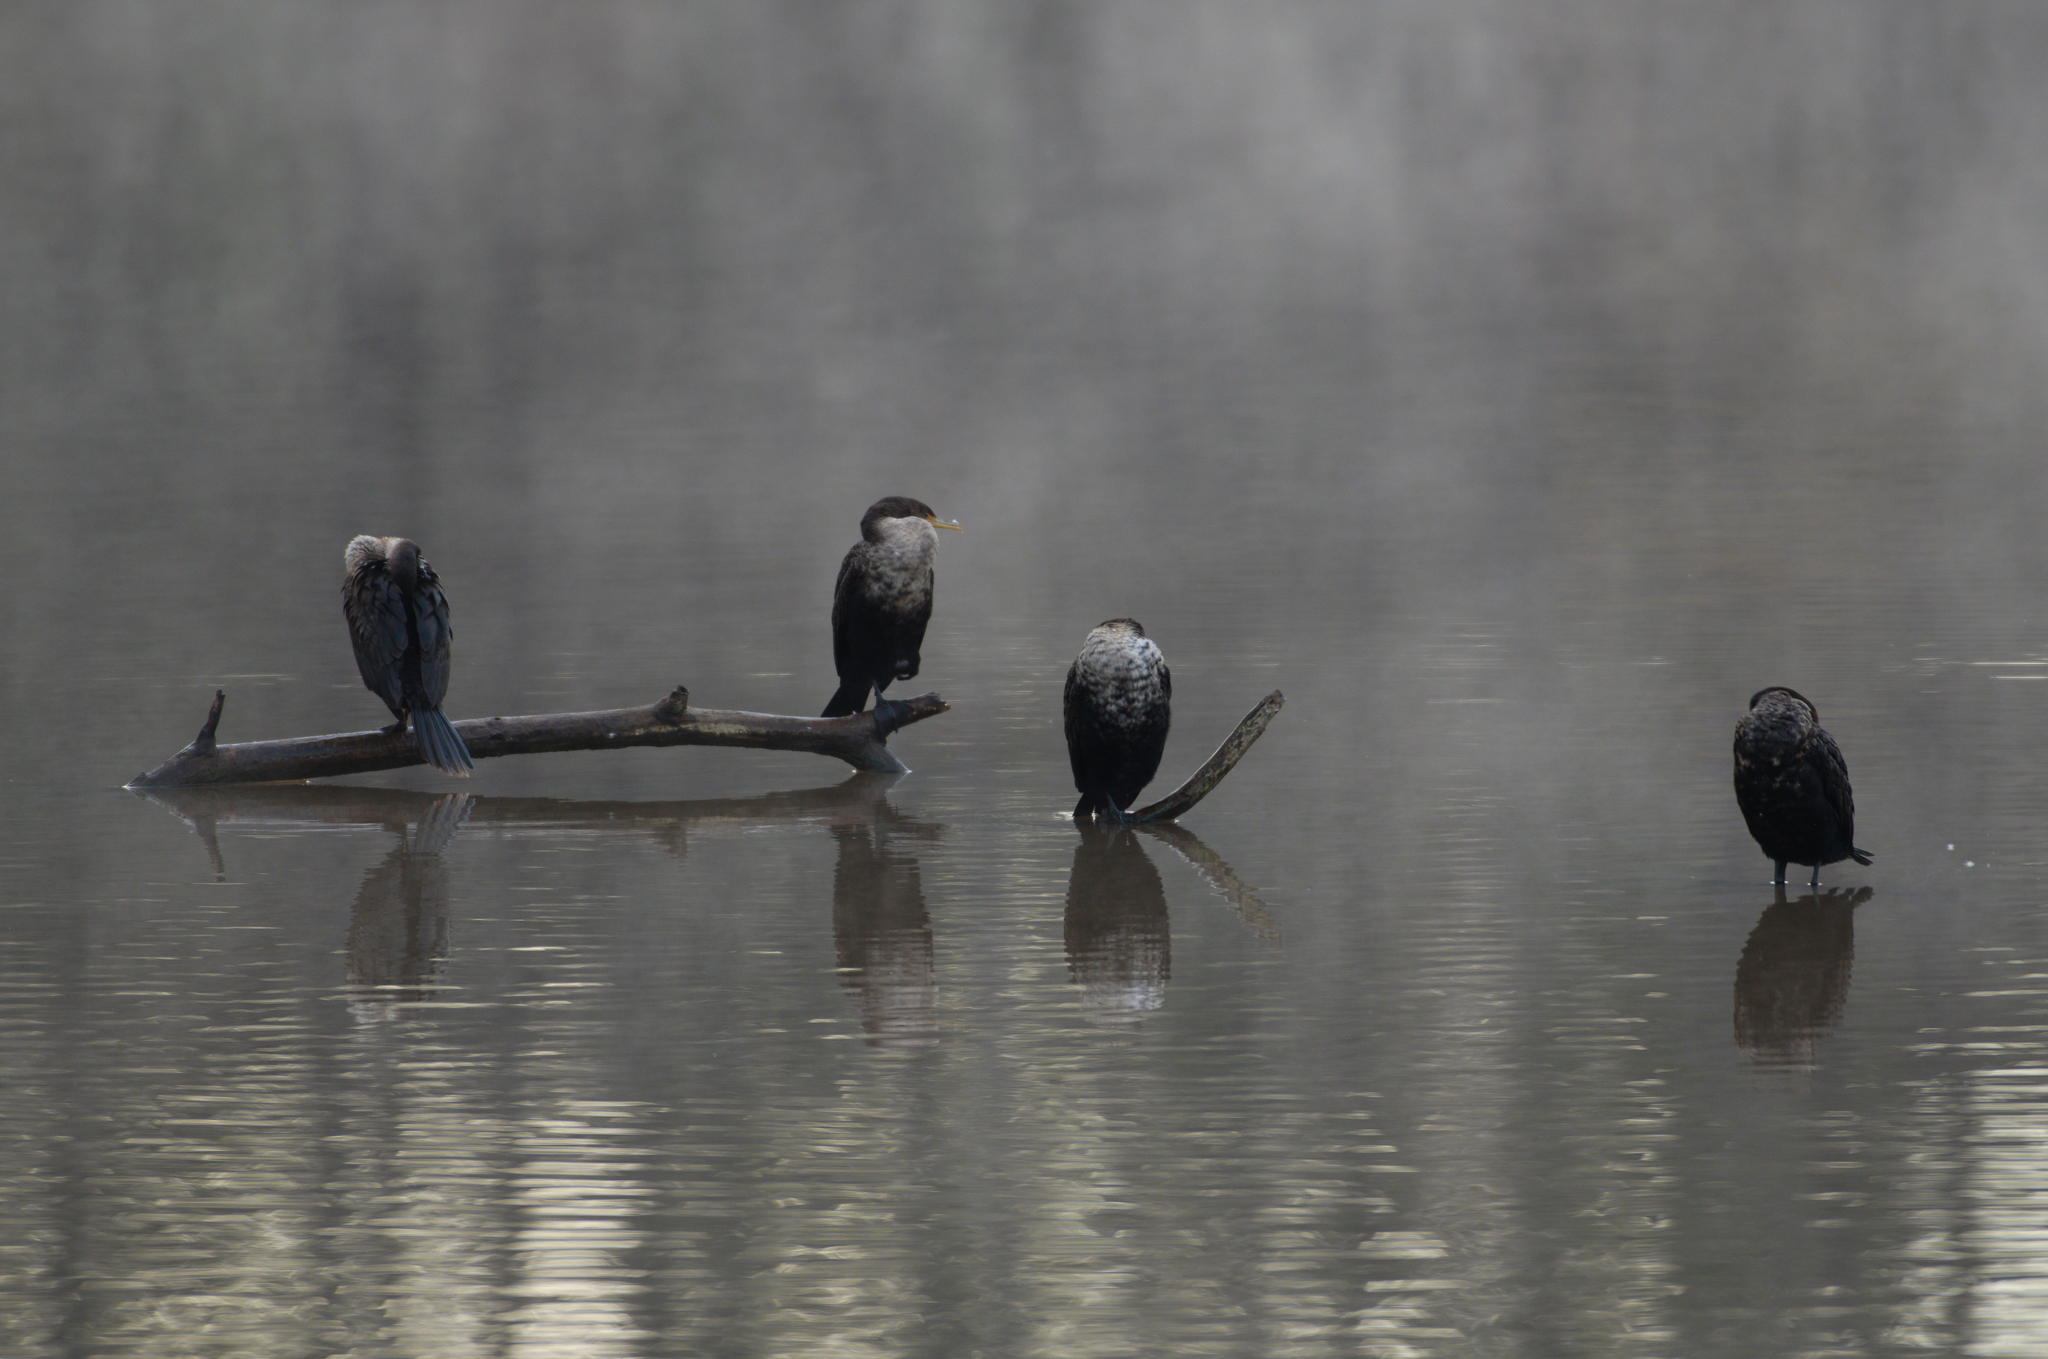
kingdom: Animalia
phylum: Chordata
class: Aves
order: Suliformes
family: Phalacrocoracidae
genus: Phalacrocorax
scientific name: Phalacrocorax auritus
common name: Double-crested cormorant
